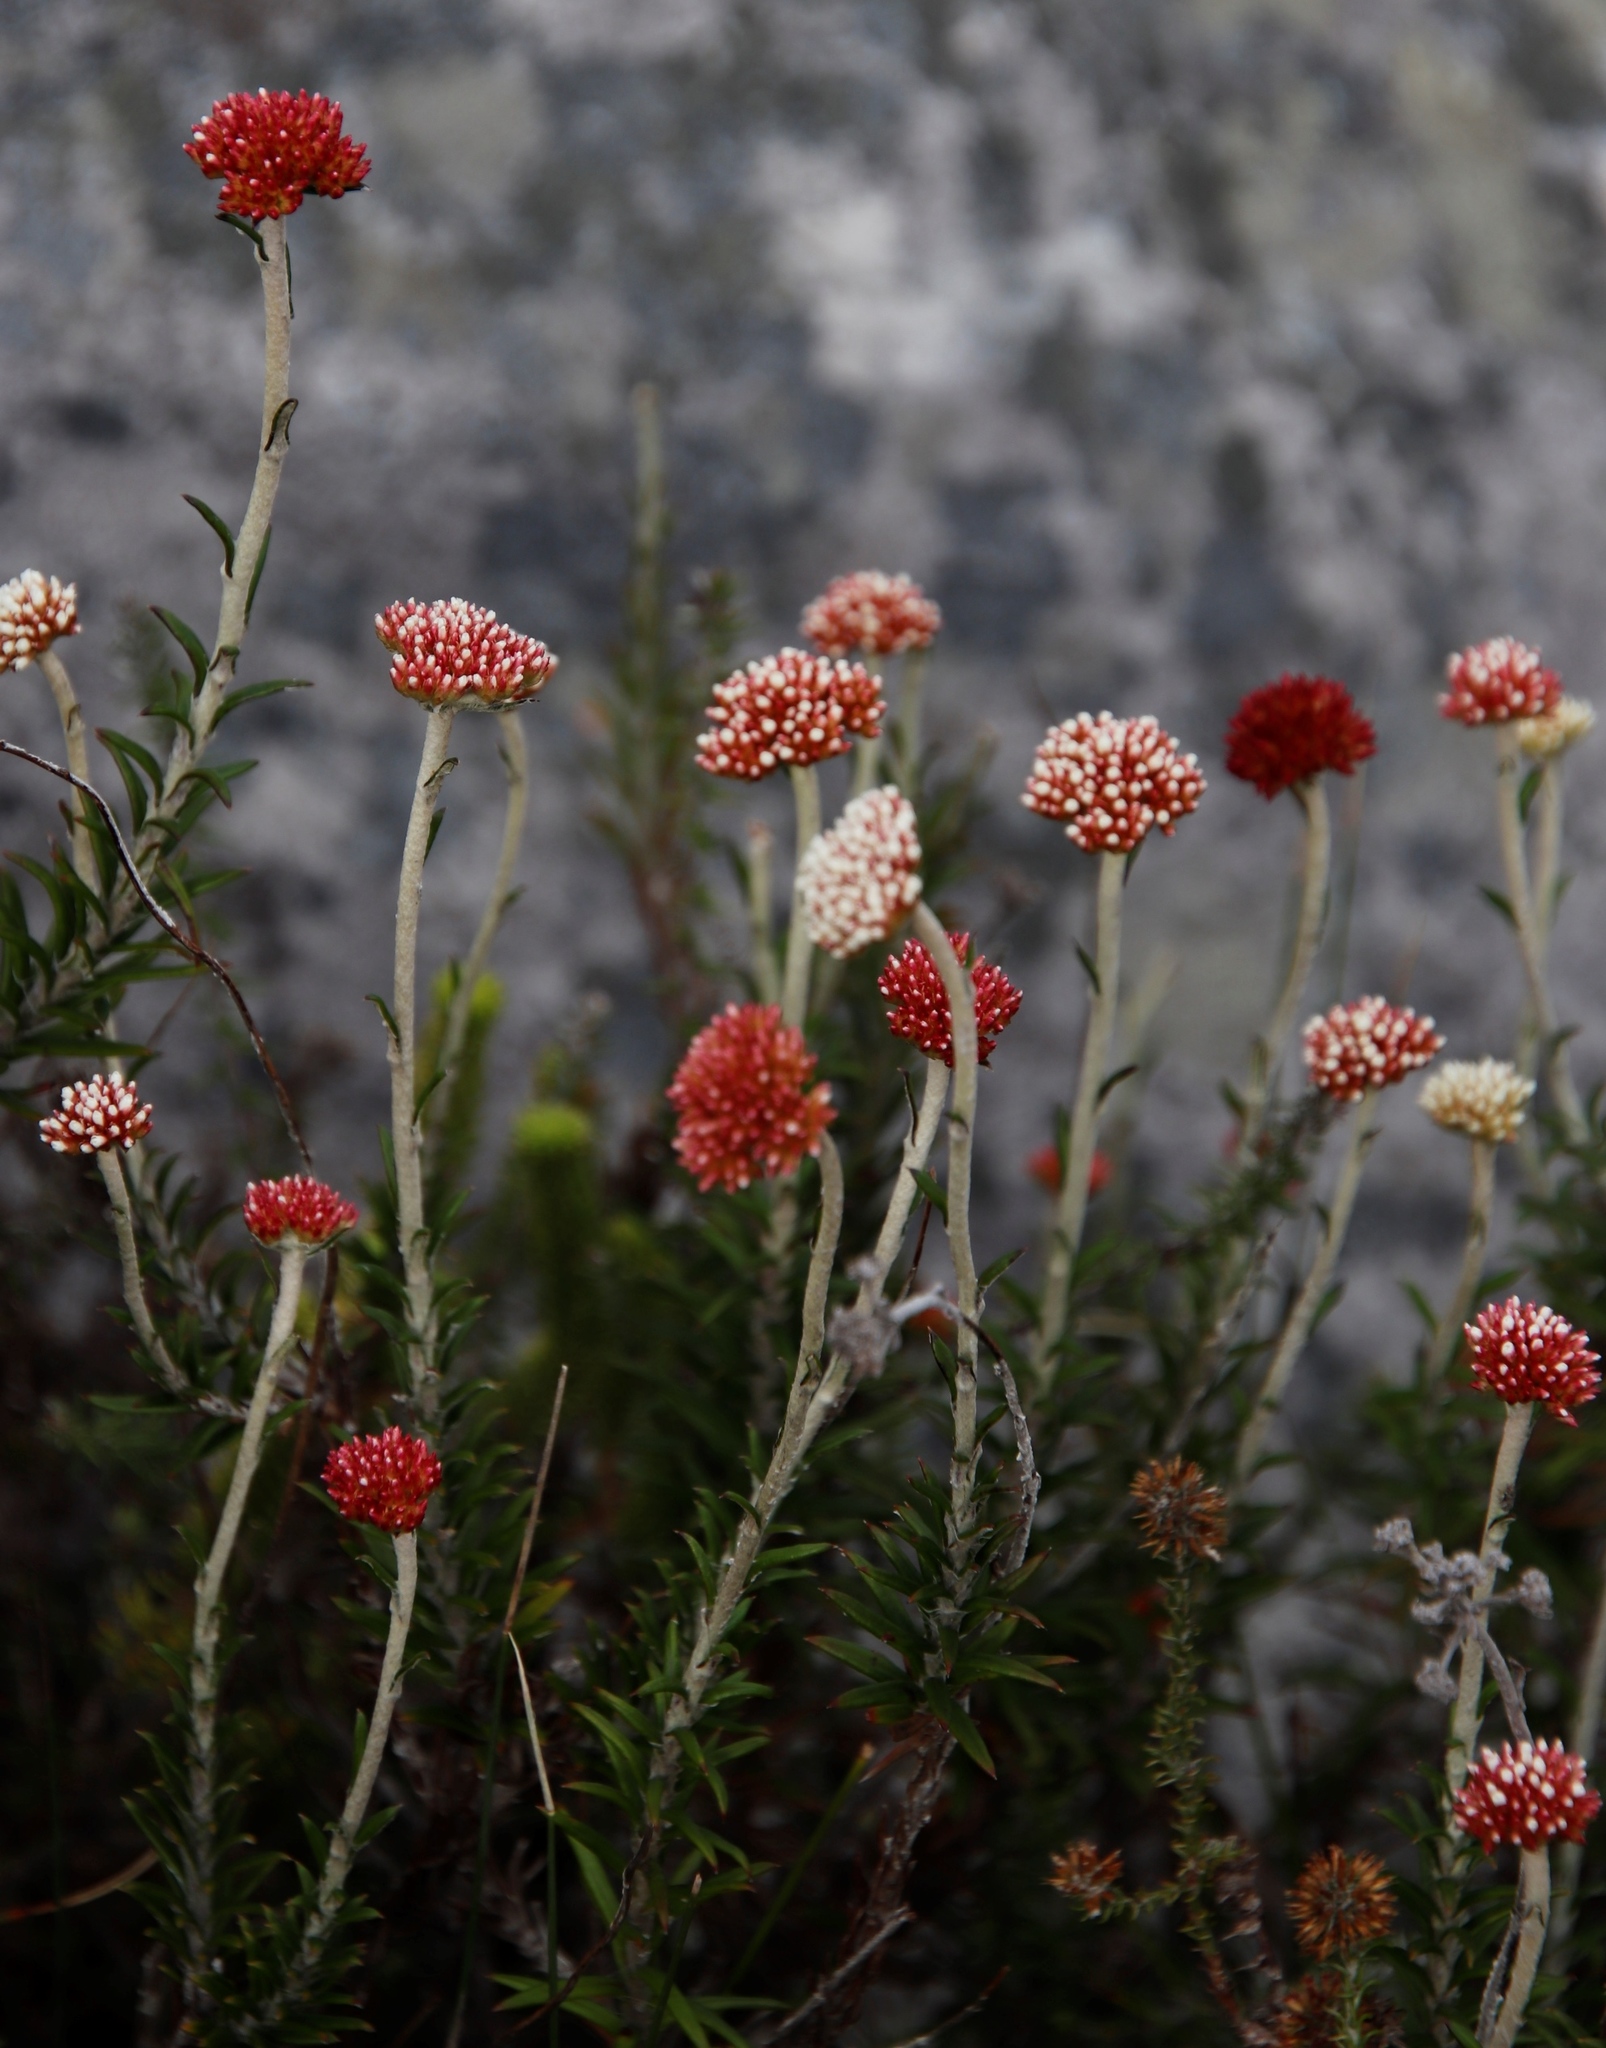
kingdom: Plantae
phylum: Tracheophyta
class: Magnoliopsida
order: Asterales
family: Asteraceae
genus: Anaxeton
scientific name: Anaxeton arborescens
